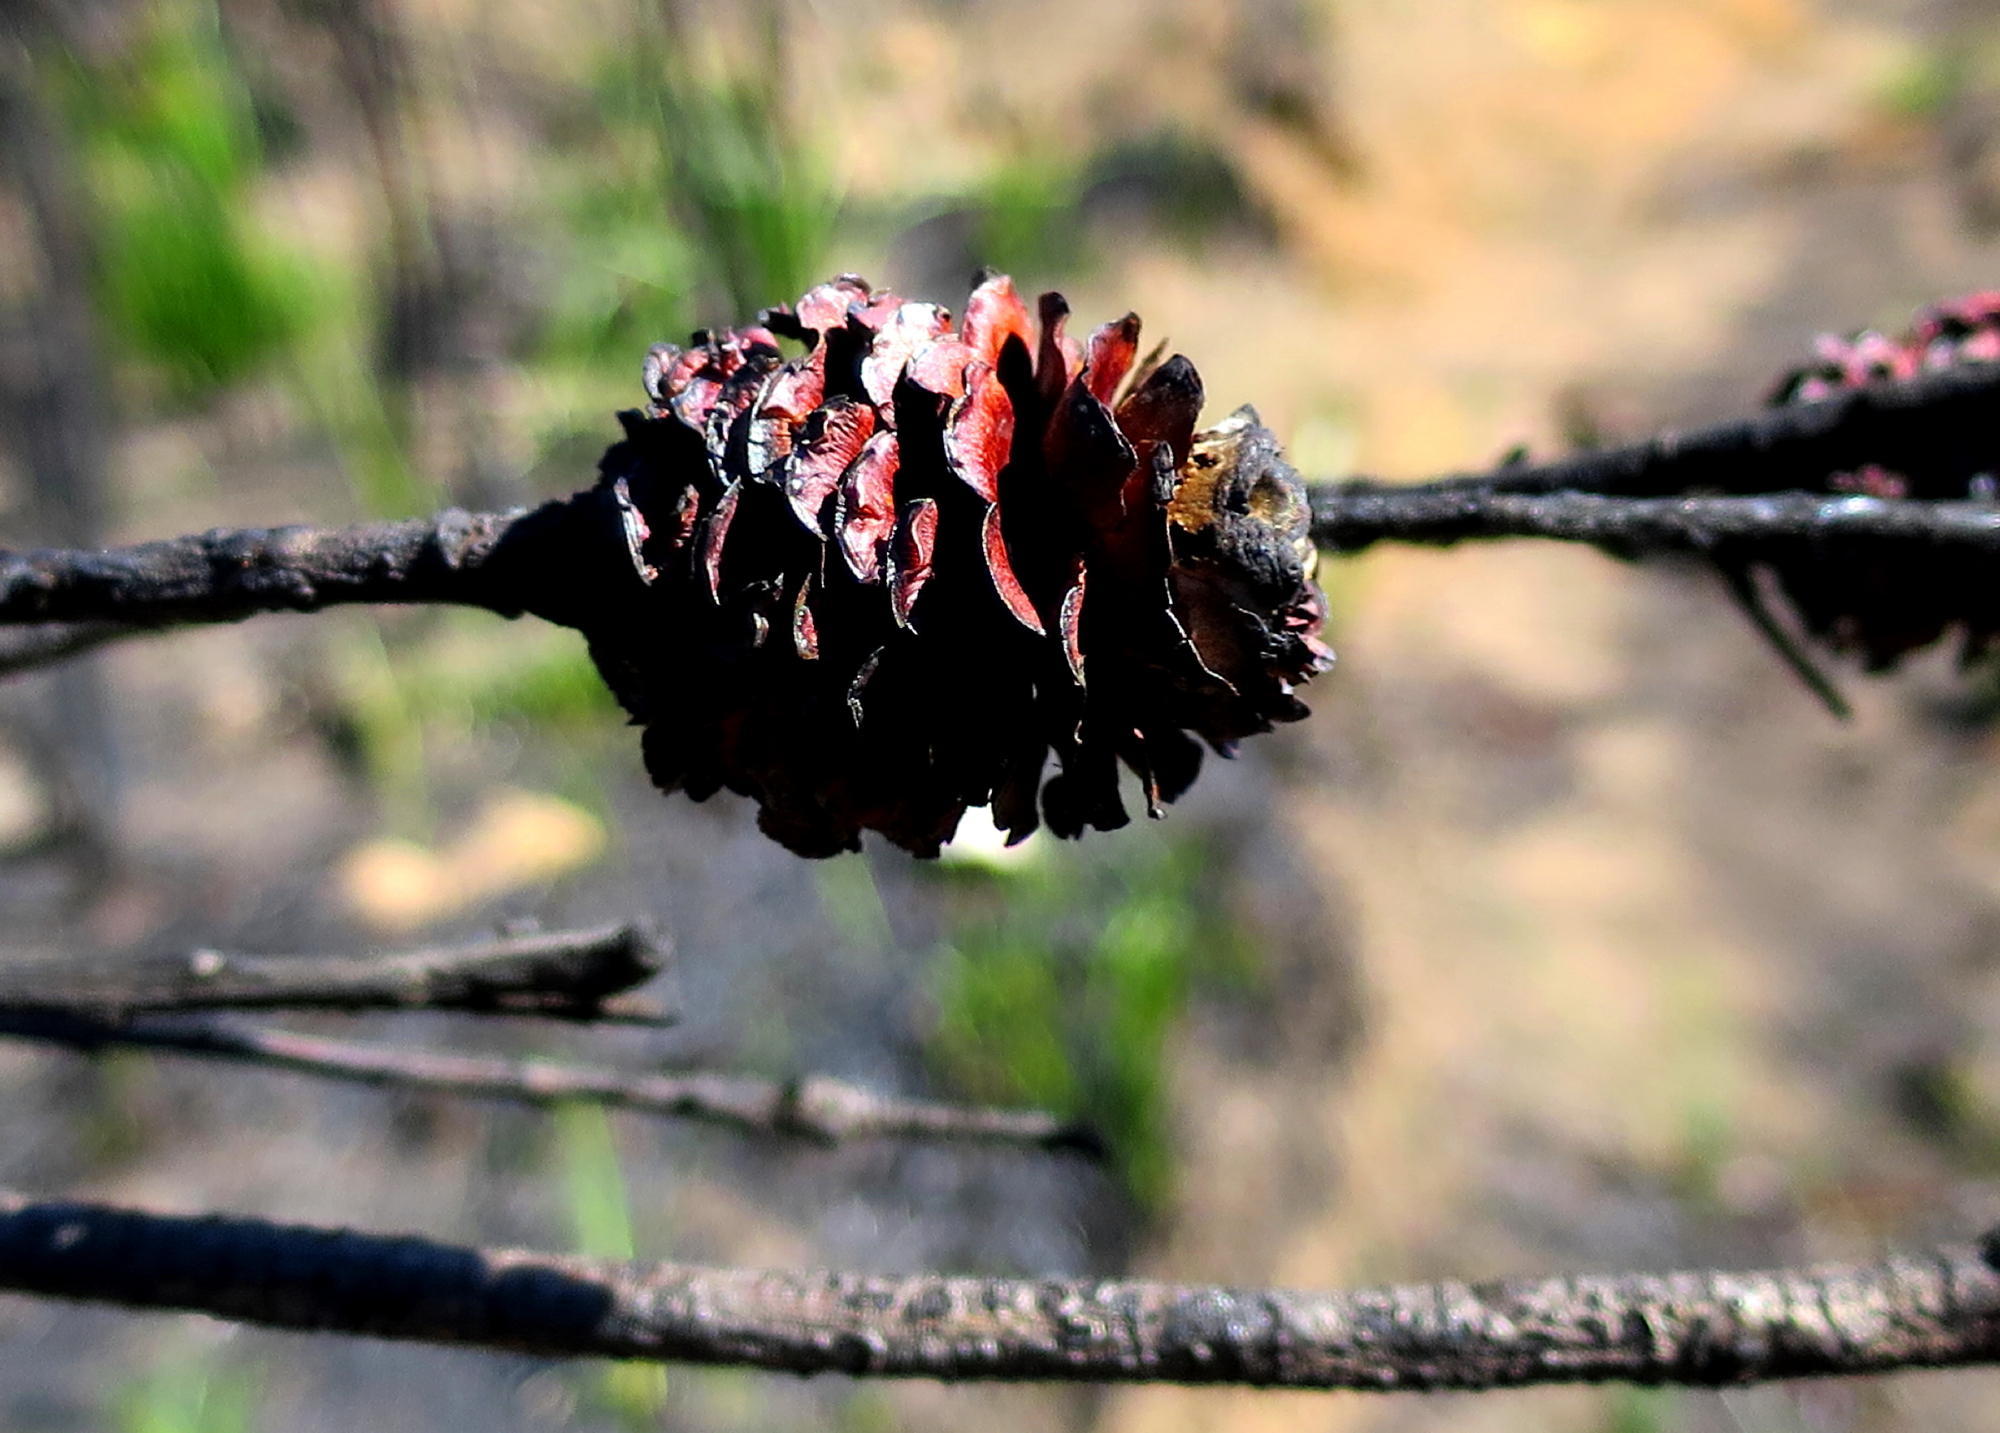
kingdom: Plantae
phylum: Tracheophyta
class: Magnoliopsida
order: Proteales
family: Proteaceae
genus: Leucadendron
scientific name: Leucadendron eucalyptifolium
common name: Gum-leaved conebush
